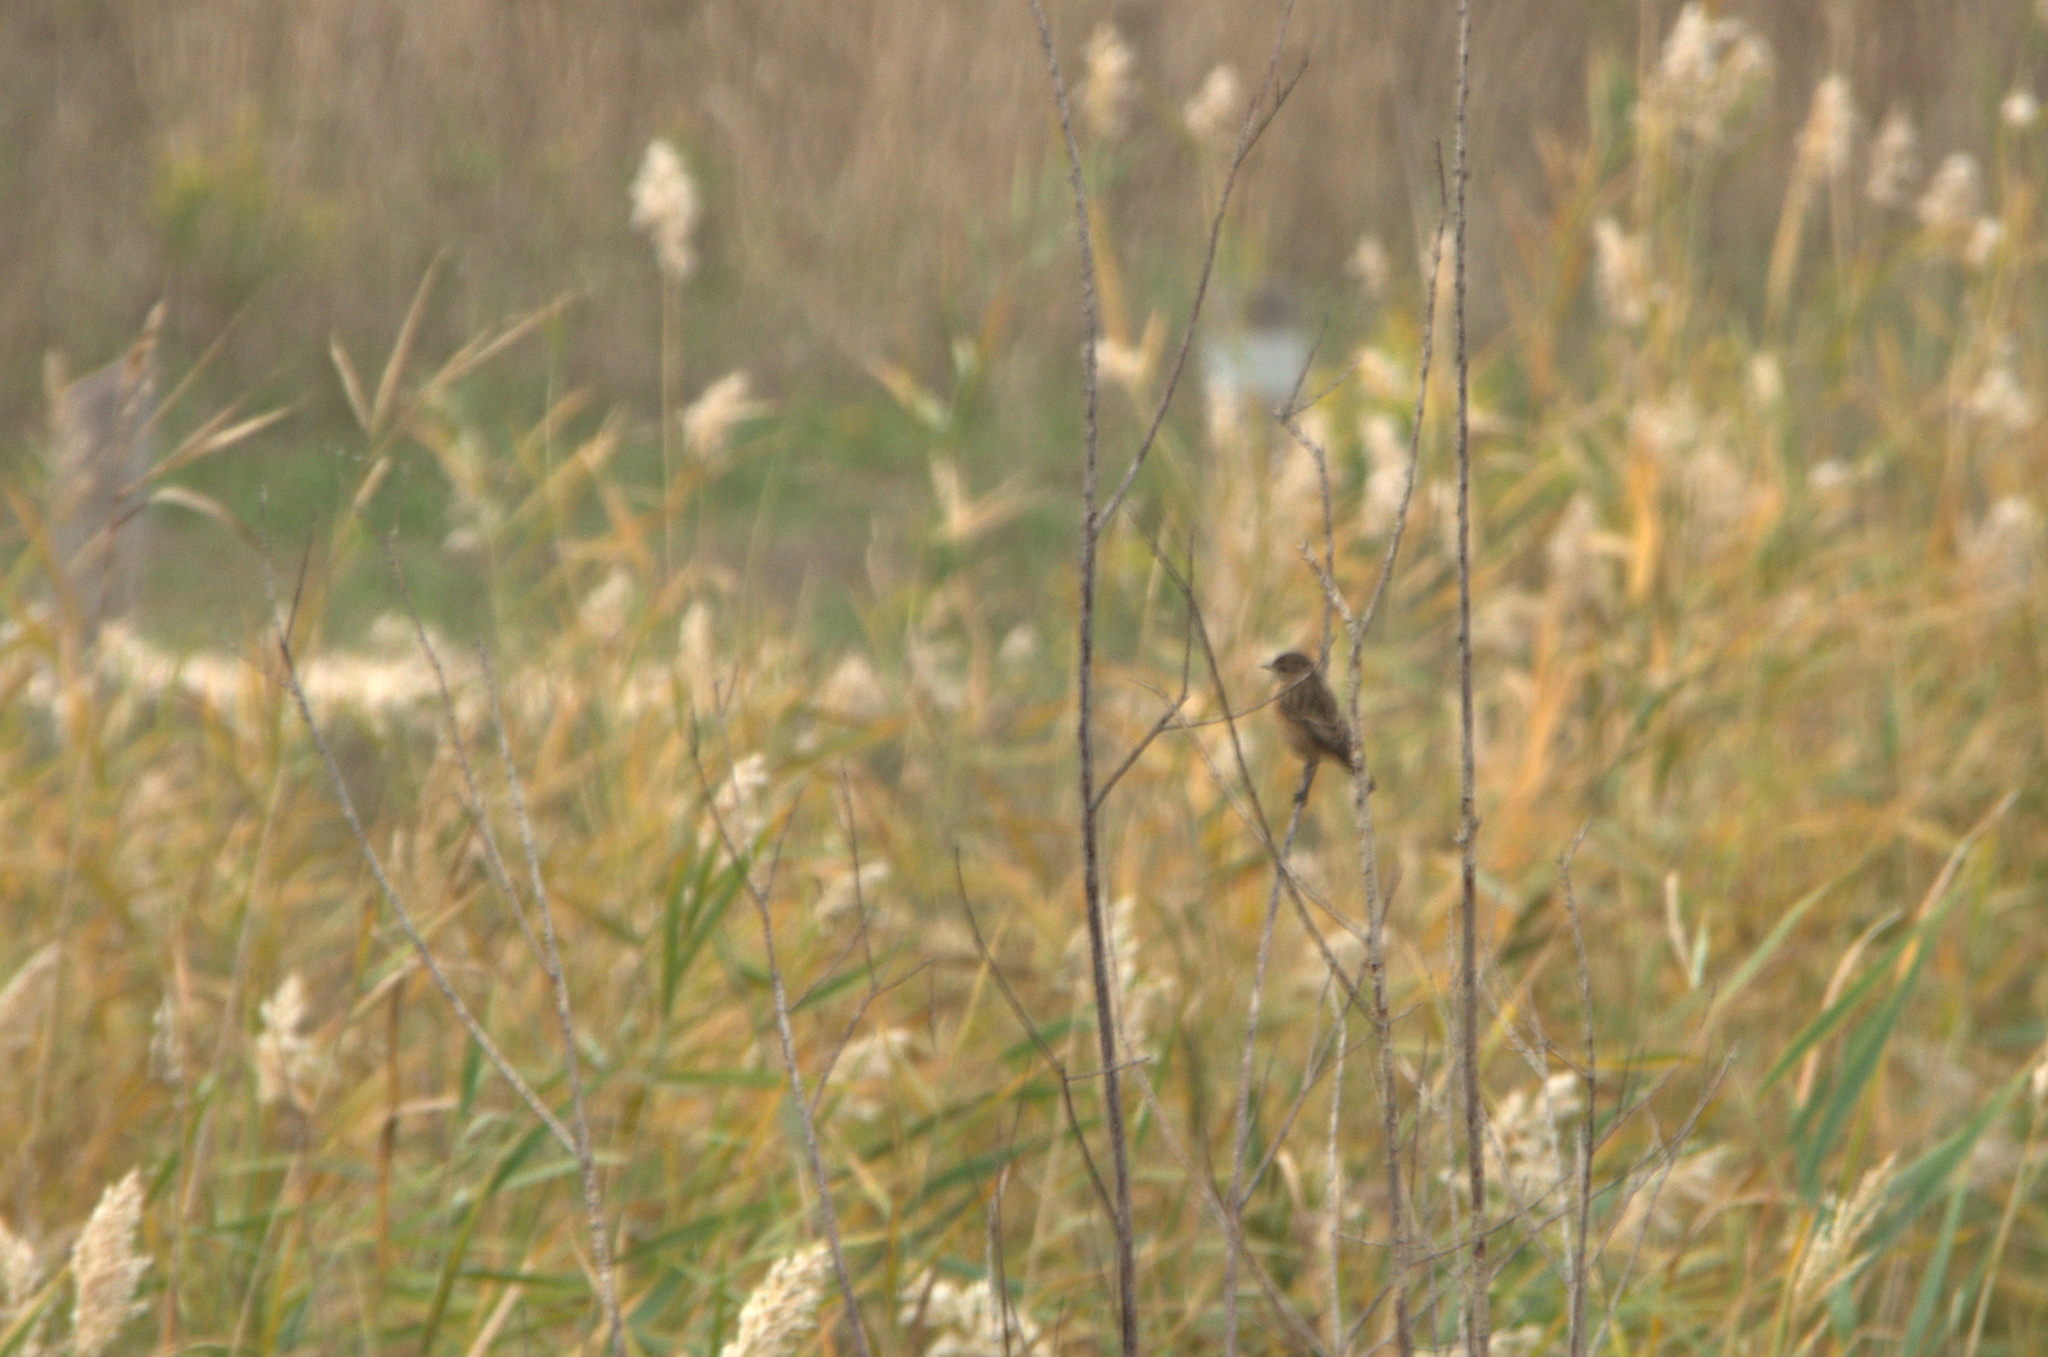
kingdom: Animalia
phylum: Chordata
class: Aves
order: Passeriformes
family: Muscicapidae
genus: Saxicola
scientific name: Saxicola rubicola
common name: European stonechat
